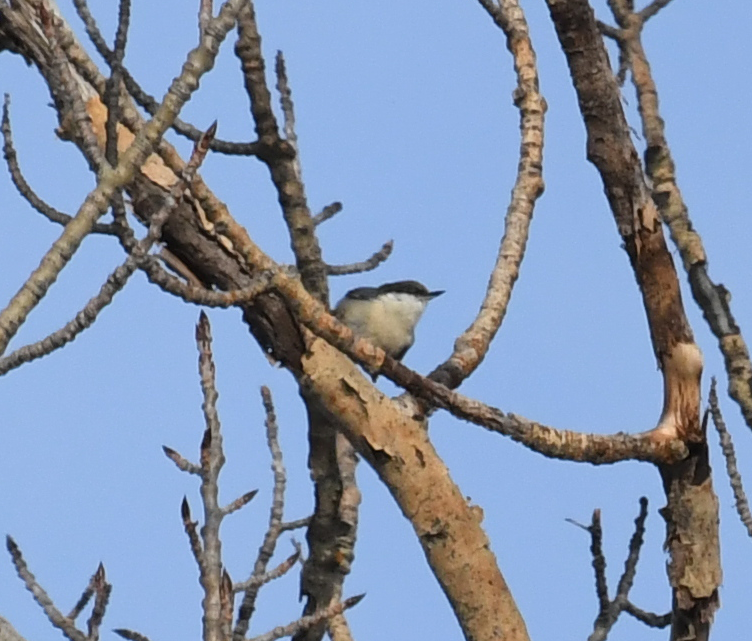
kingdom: Animalia
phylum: Chordata
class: Aves
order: Passeriformes
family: Sittidae
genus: Sitta
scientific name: Sitta pygmaea
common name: Pygmy nuthatch
